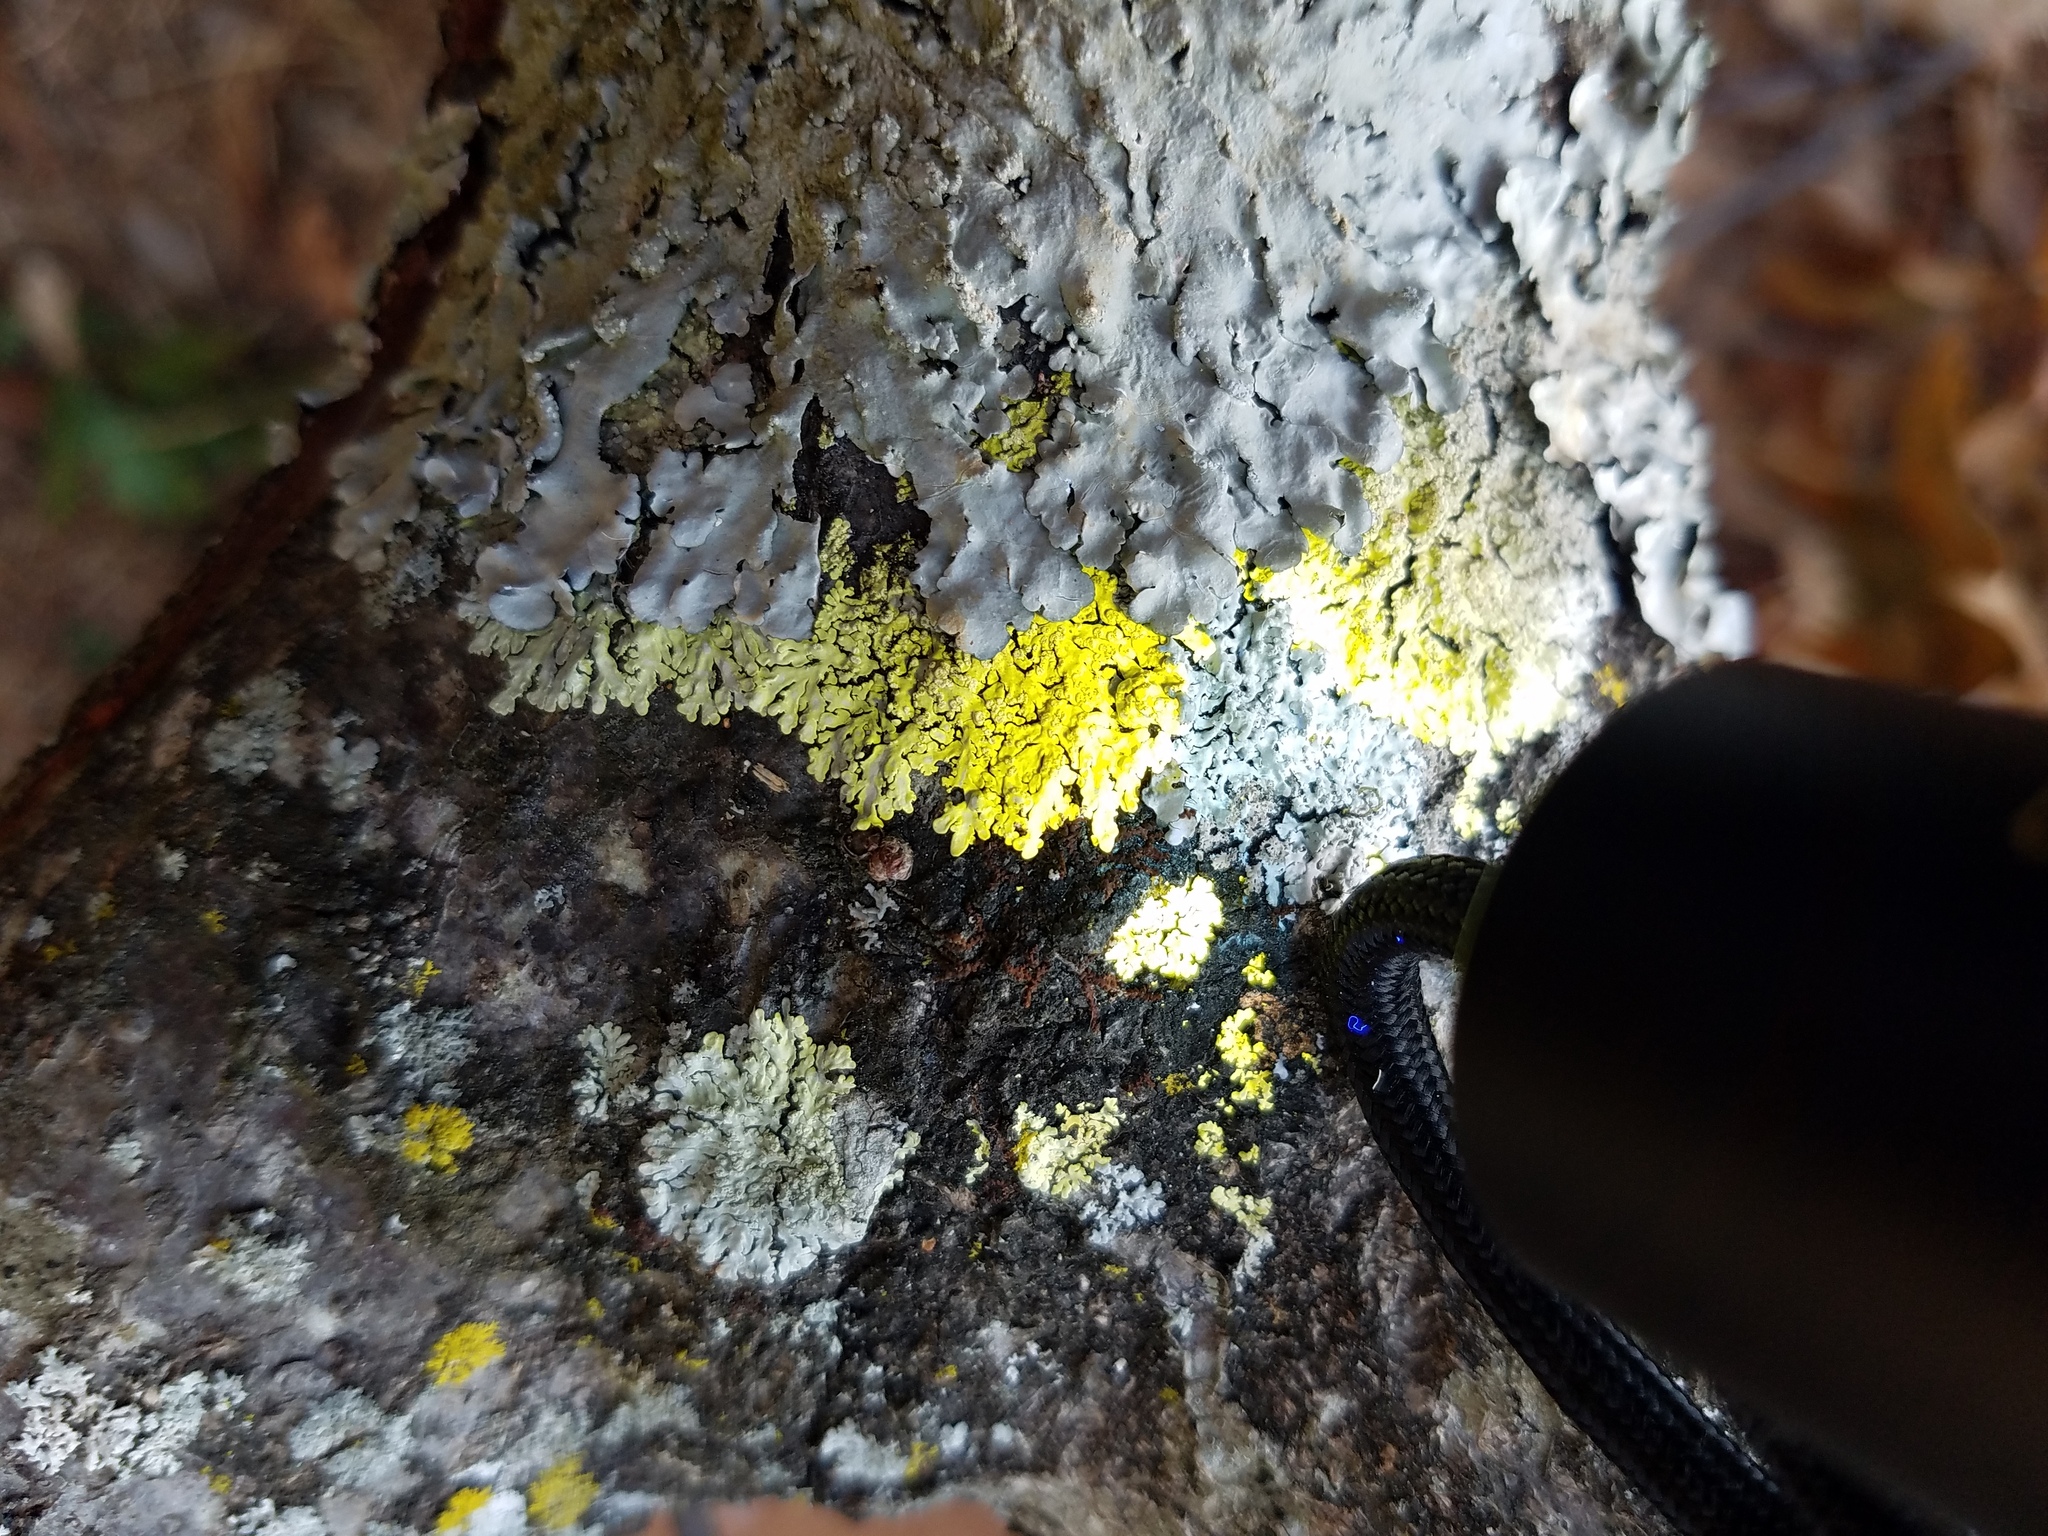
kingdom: Fungi
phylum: Ascomycota
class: Lecanoromycetes
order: Caliciales
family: Caliciaceae
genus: Pyxine
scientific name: Pyxine subcinerea
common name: Mustard lichen
